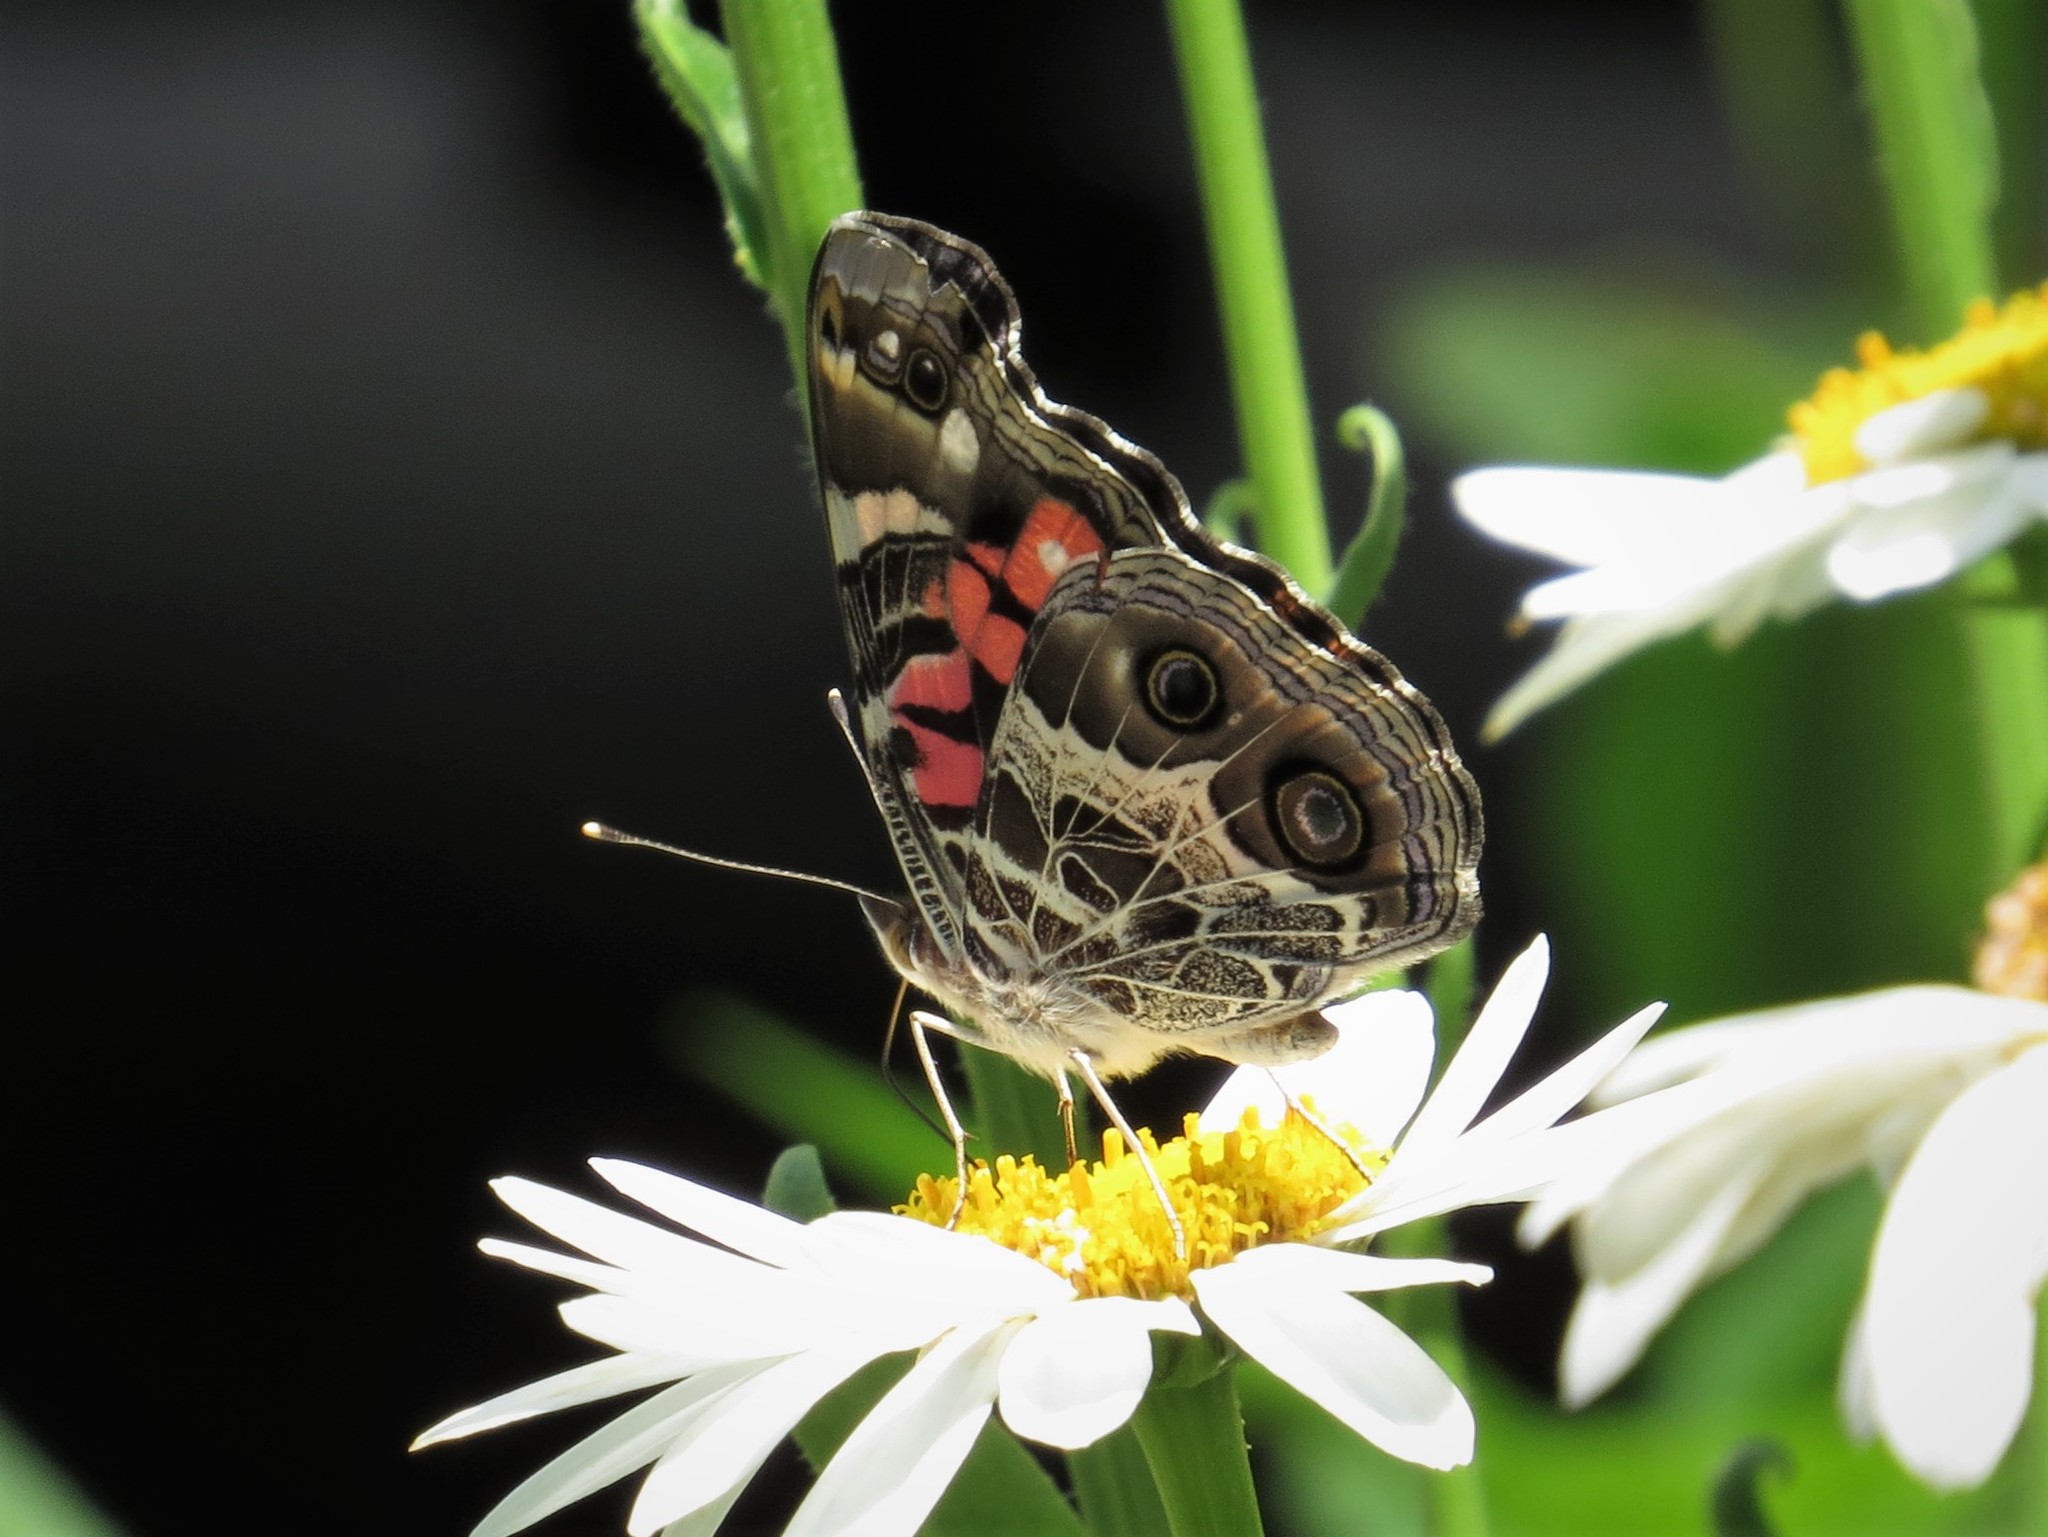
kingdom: Animalia
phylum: Arthropoda
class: Insecta
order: Lepidoptera
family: Nymphalidae
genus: Vanessa
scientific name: Vanessa virginiensis
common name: American lady
